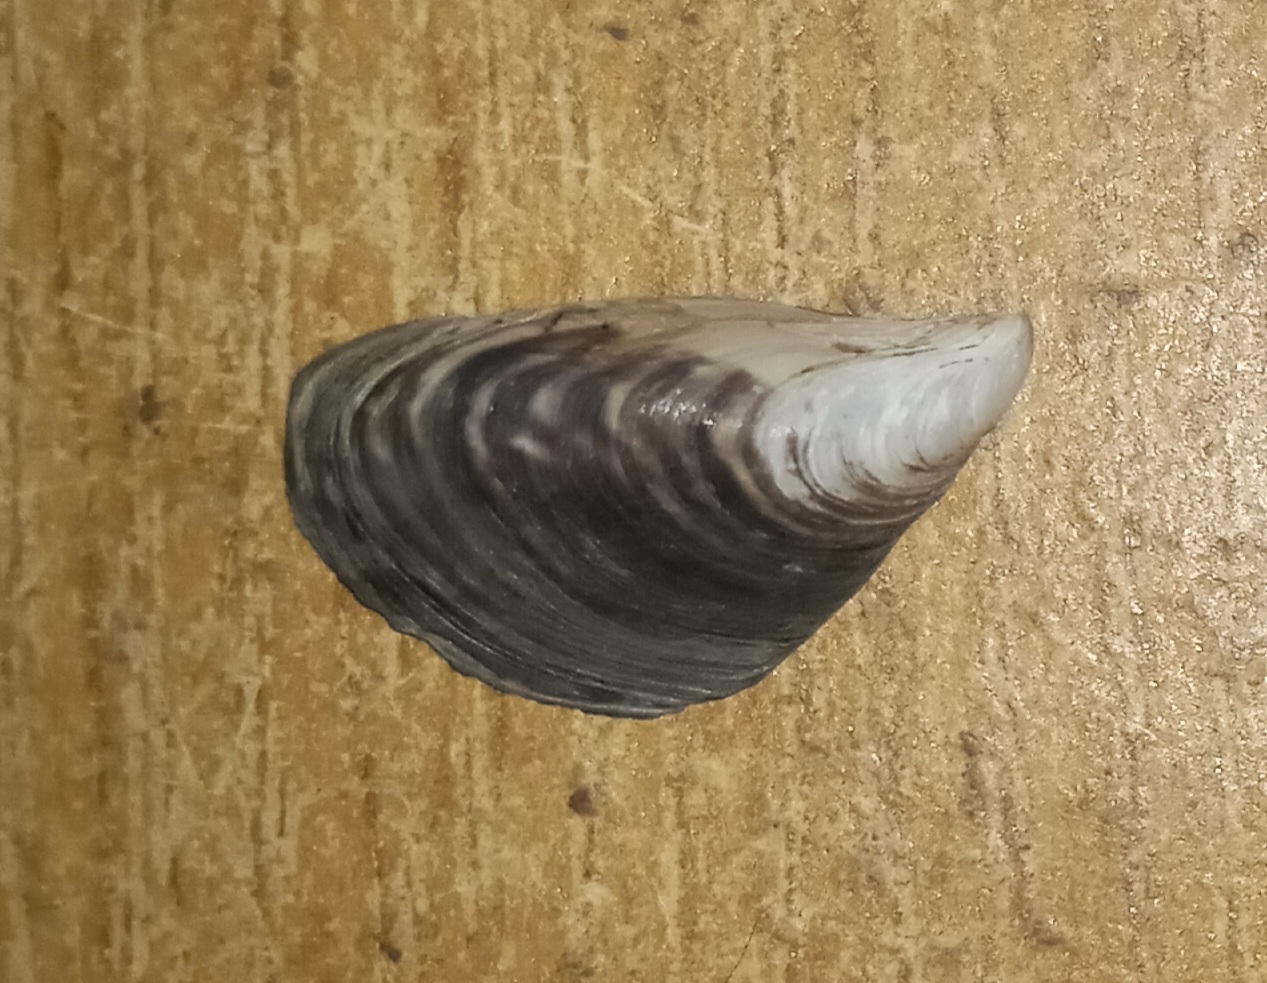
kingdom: Animalia
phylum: Mollusca
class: Bivalvia
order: Myida
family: Dreissenidae
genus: Dreissena
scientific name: Dreissena bugensis
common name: Quagga mussel
